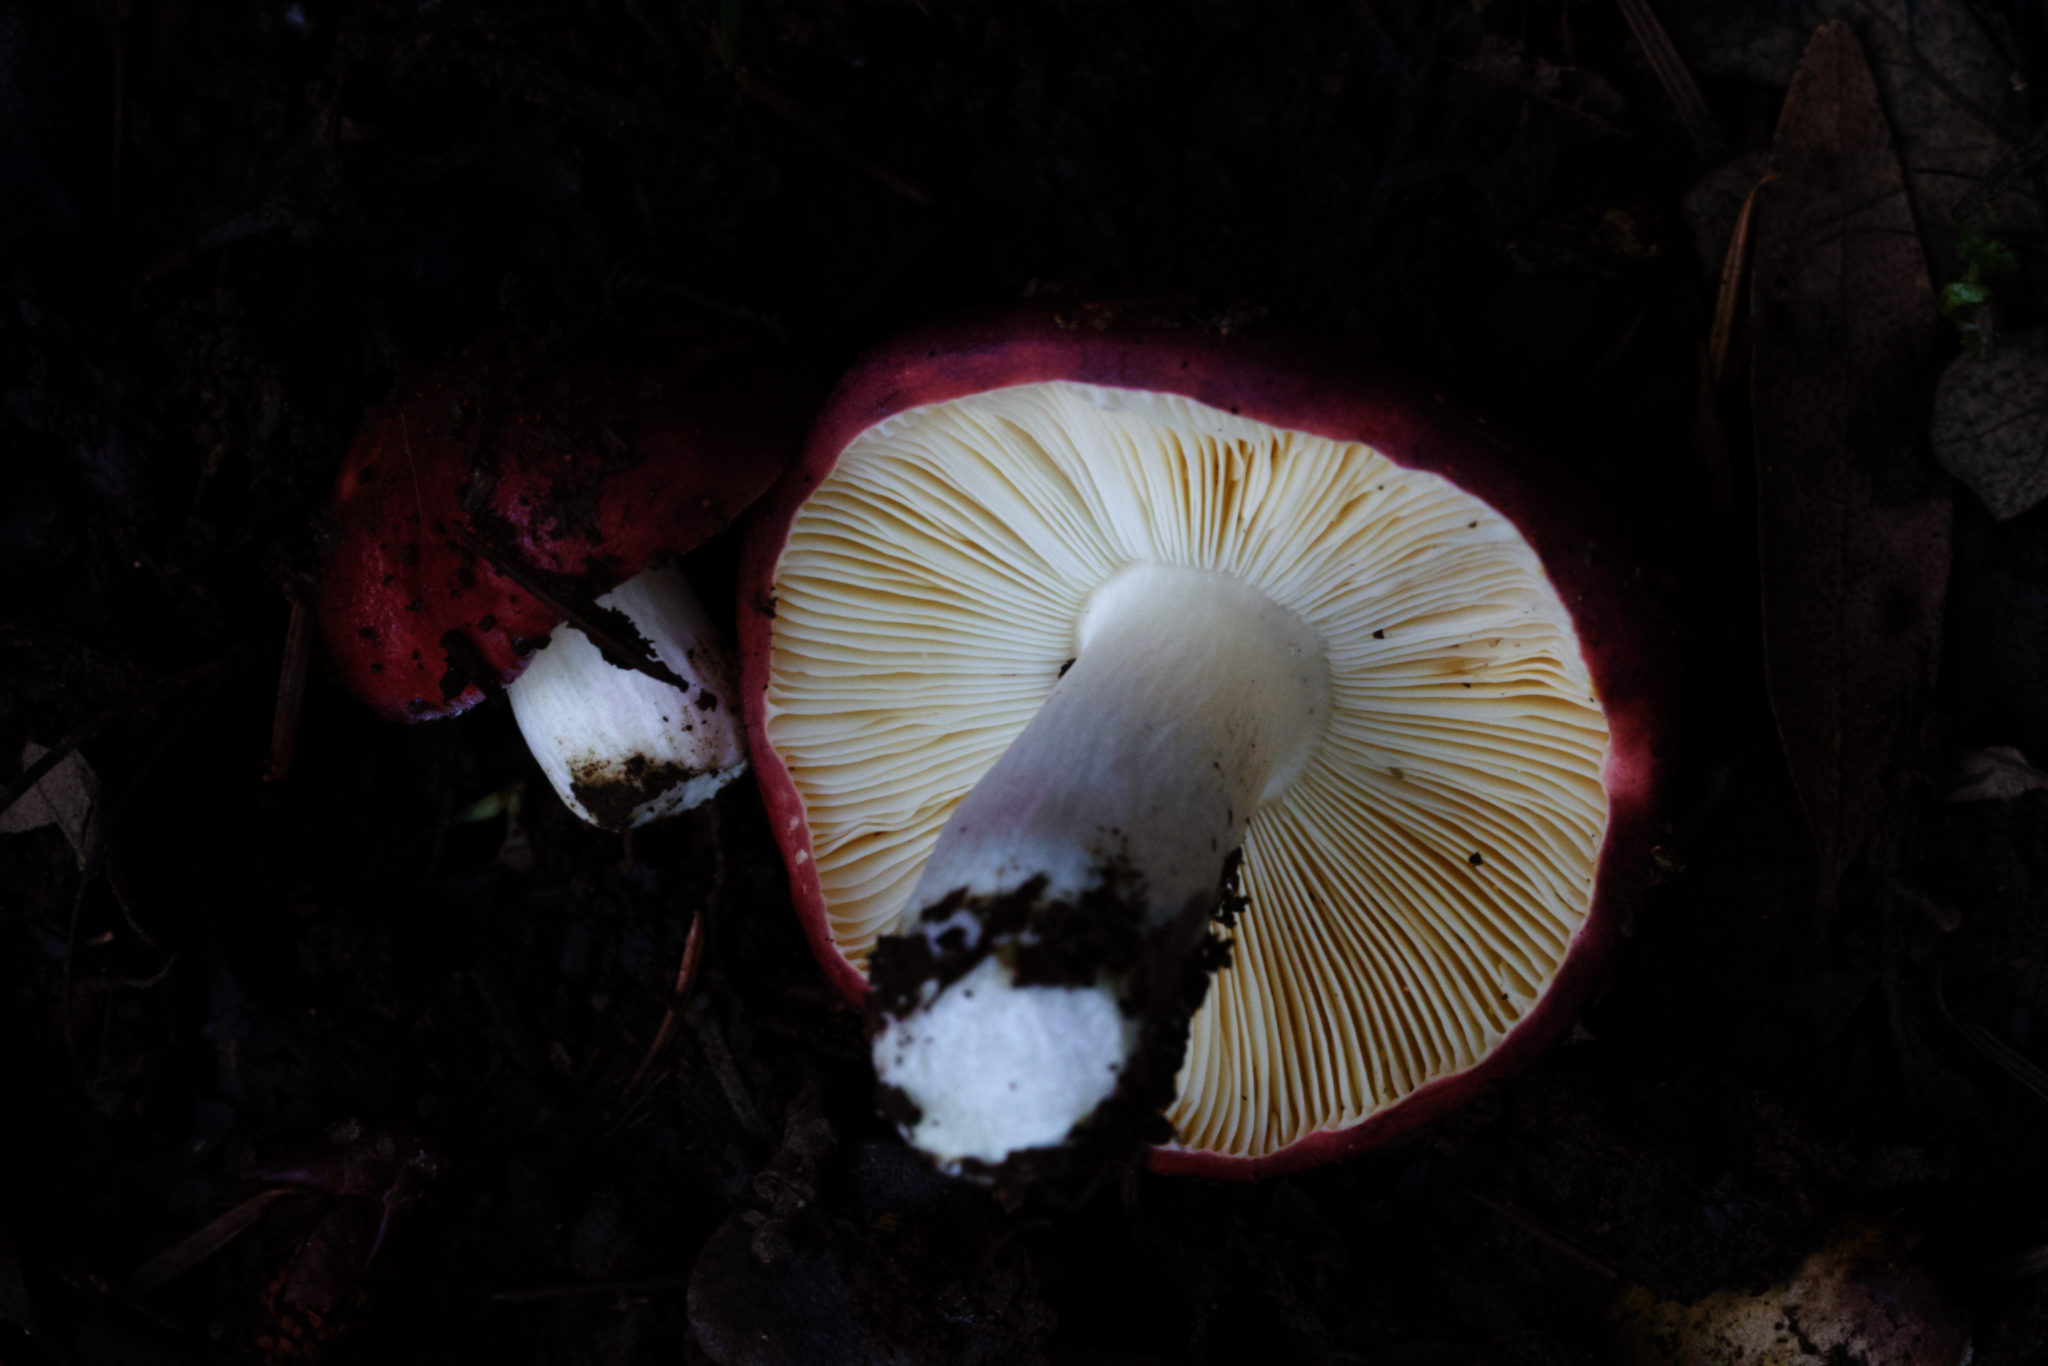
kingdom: Fungi
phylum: Basidiomycota
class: Agaricomycetes
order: Russulales
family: Russulaceae
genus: Russula
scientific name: Russula xerampelina
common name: Crab brittlegill
